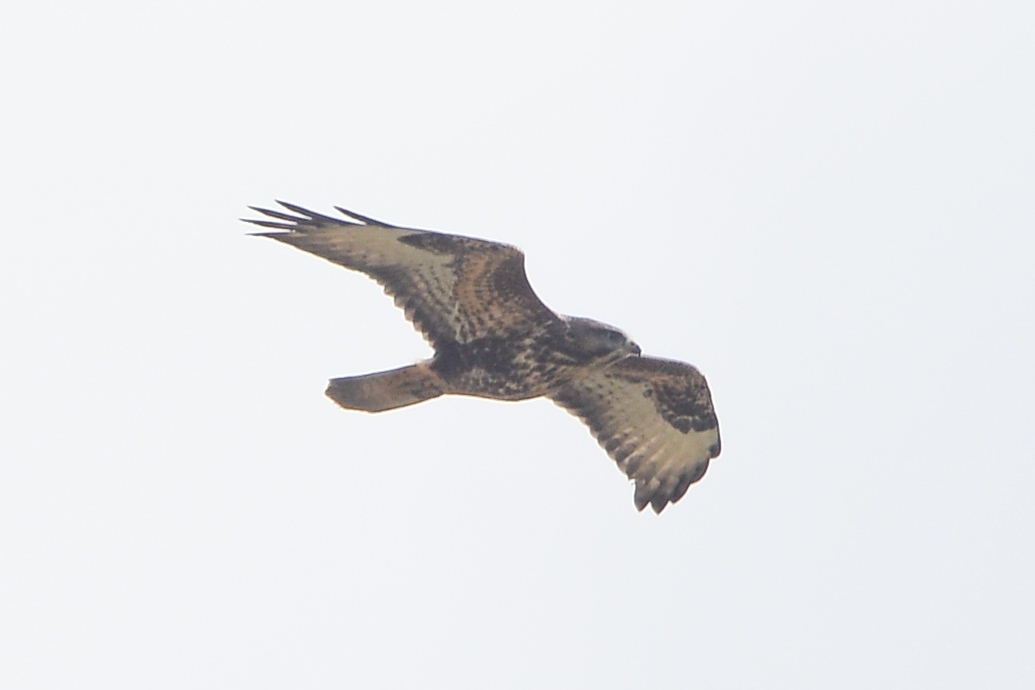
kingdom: Animalia
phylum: Chordata
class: Aves
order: Accipitriformes
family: Accipitridae
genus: Buteo
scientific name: Buteo buteo
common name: Common buzzard
